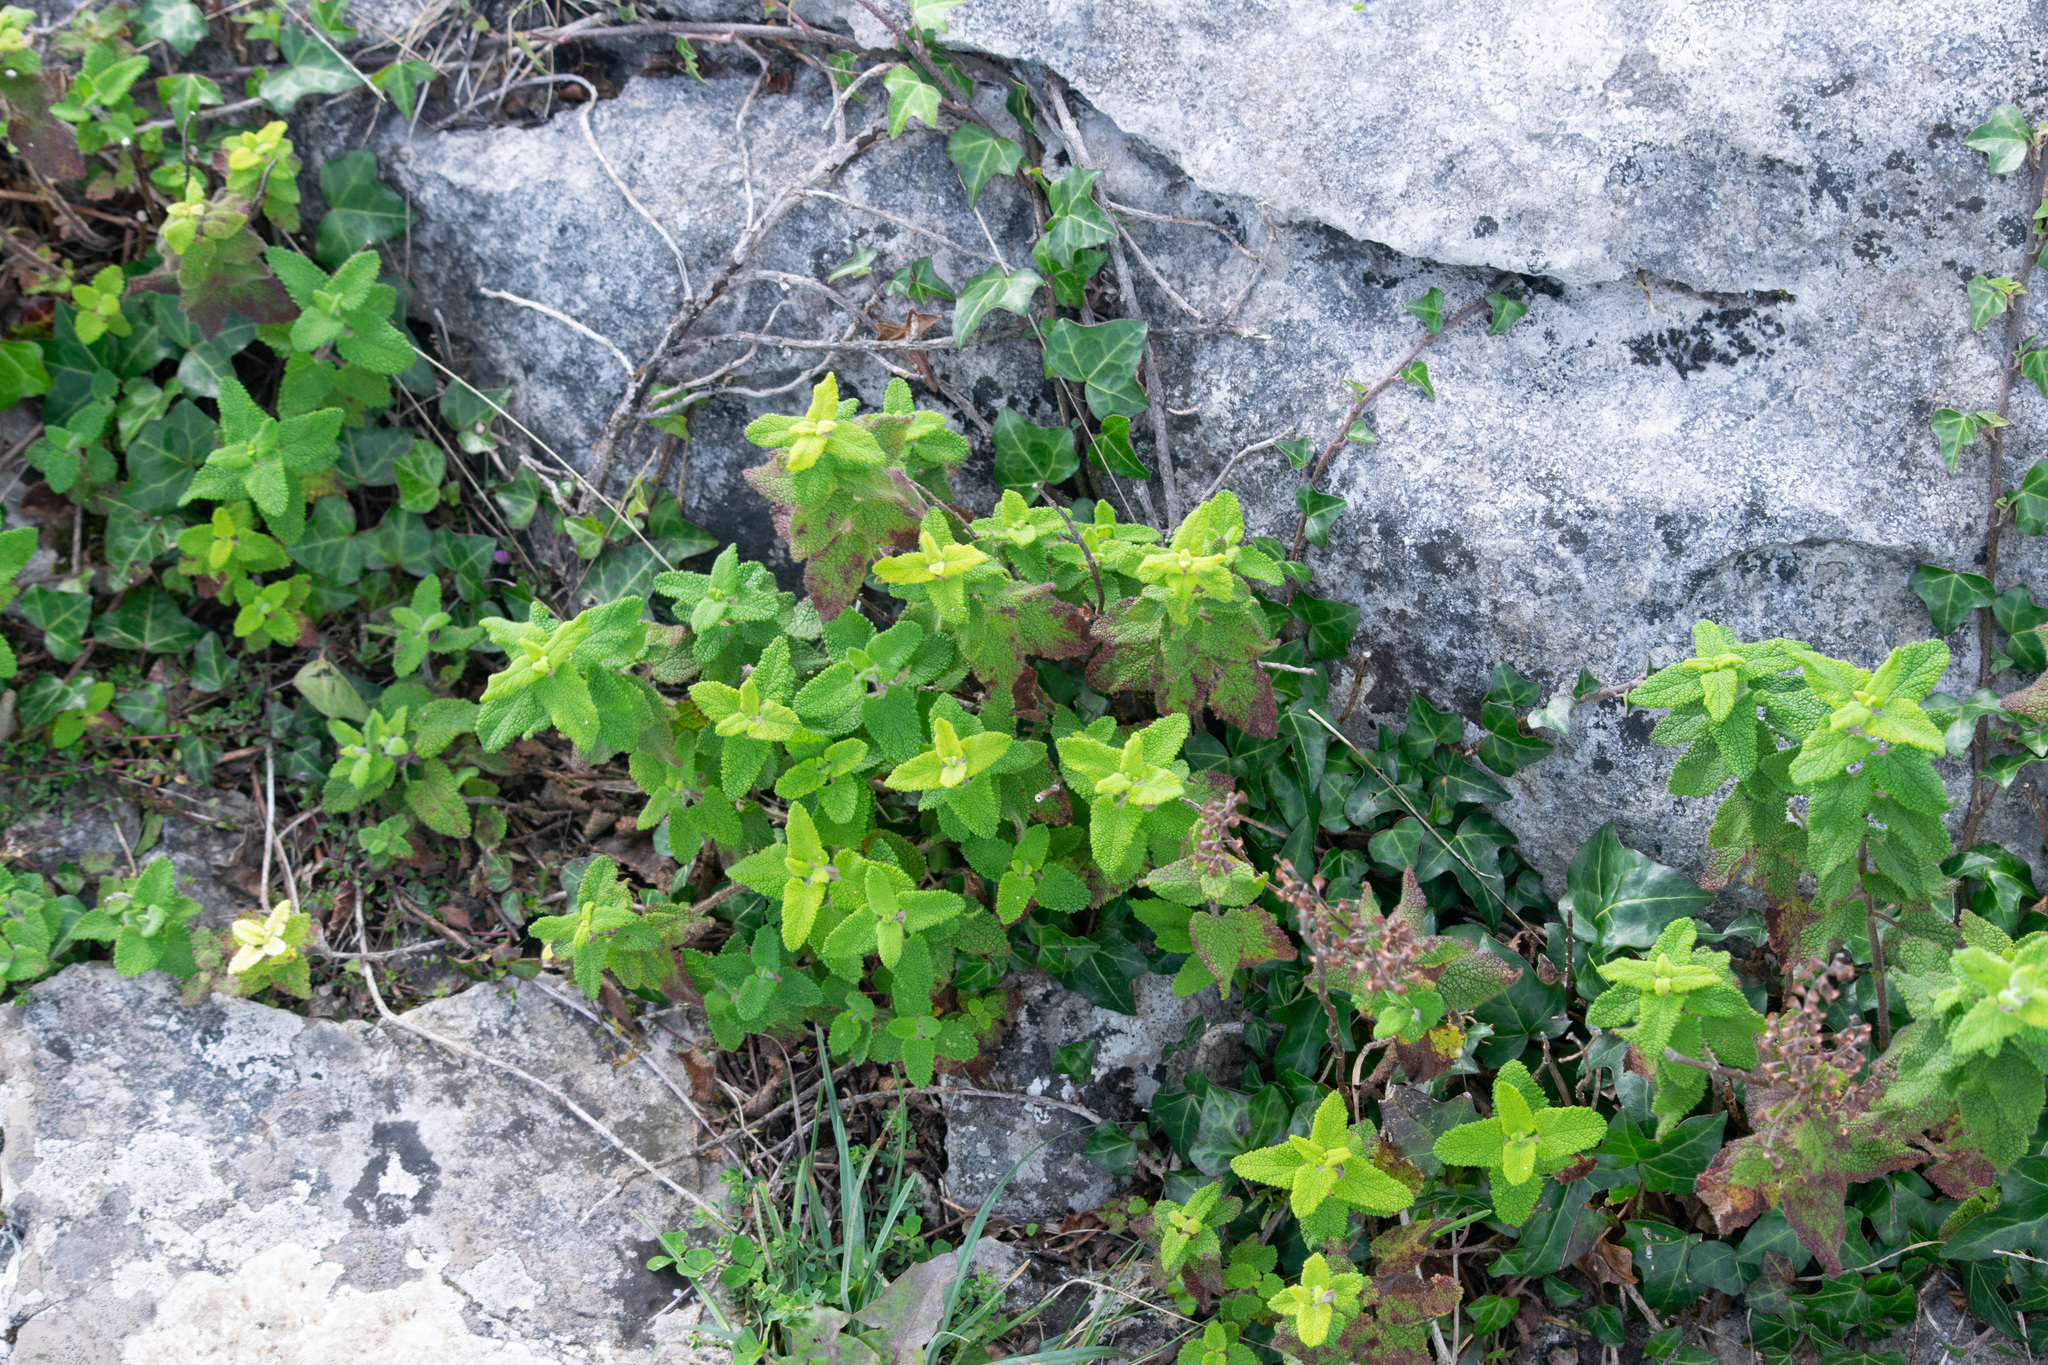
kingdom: Plantae
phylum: Tracheophyta
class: Magnoliopsida
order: Lamiales
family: Lamiaceae
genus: Teucrium
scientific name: Teucrium scorodonia
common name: Woodland germander
